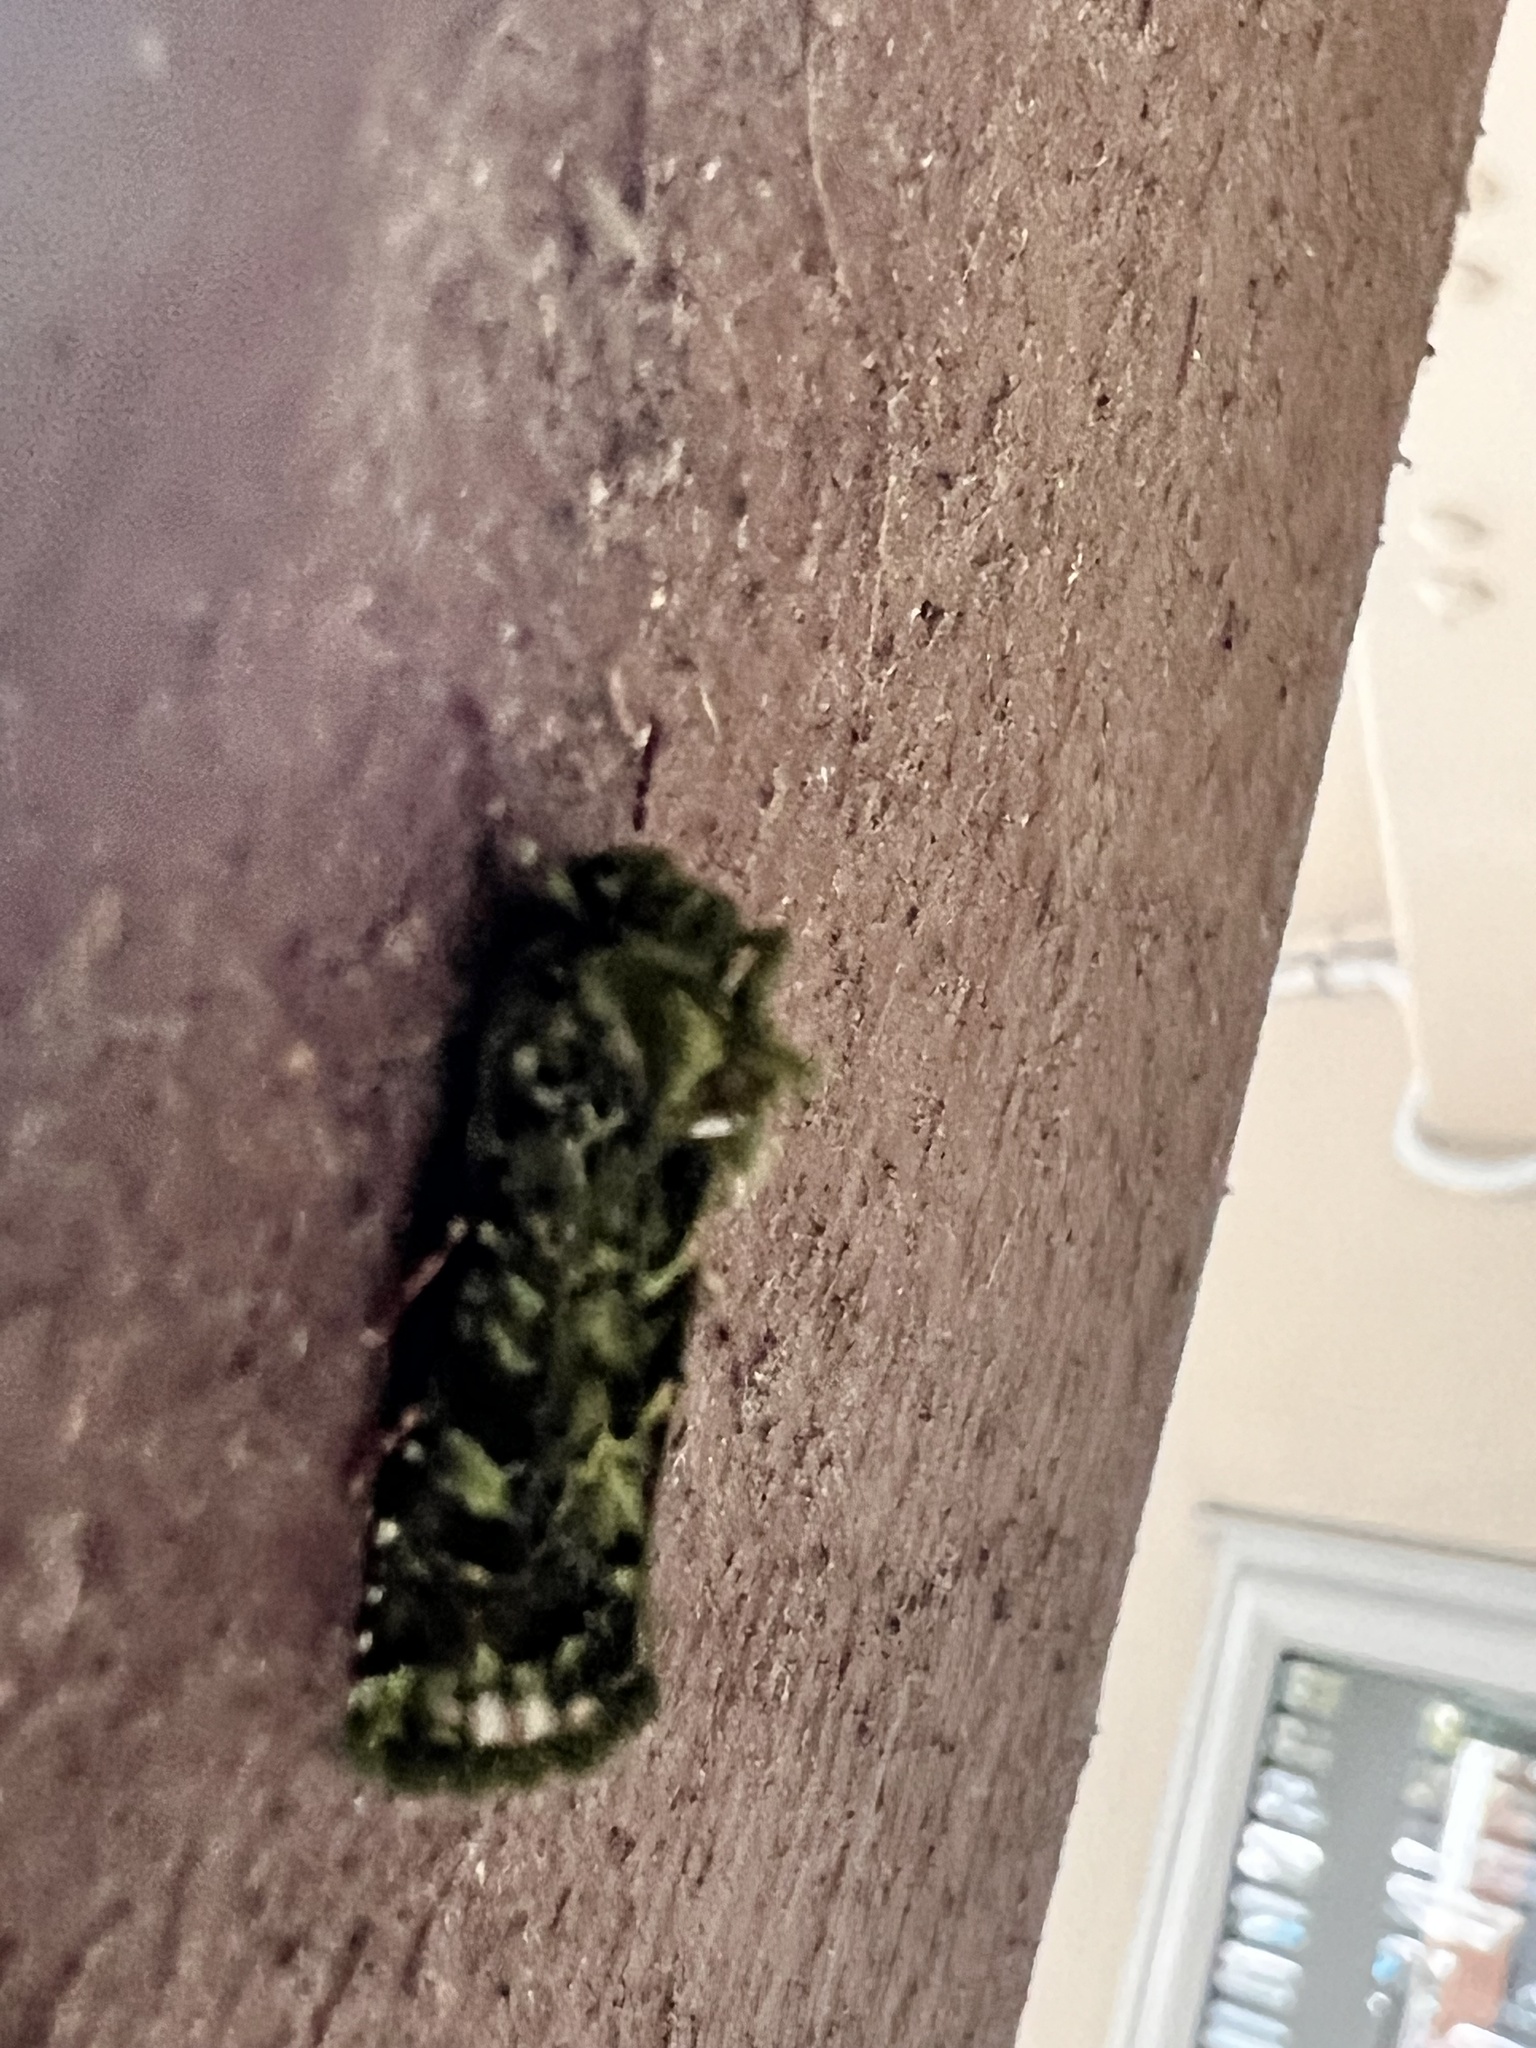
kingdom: Animalia
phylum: Arthropoda
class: Insecta
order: Lepidoptera
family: Noctuidae
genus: Feredayia
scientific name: Feredayia grammosa
